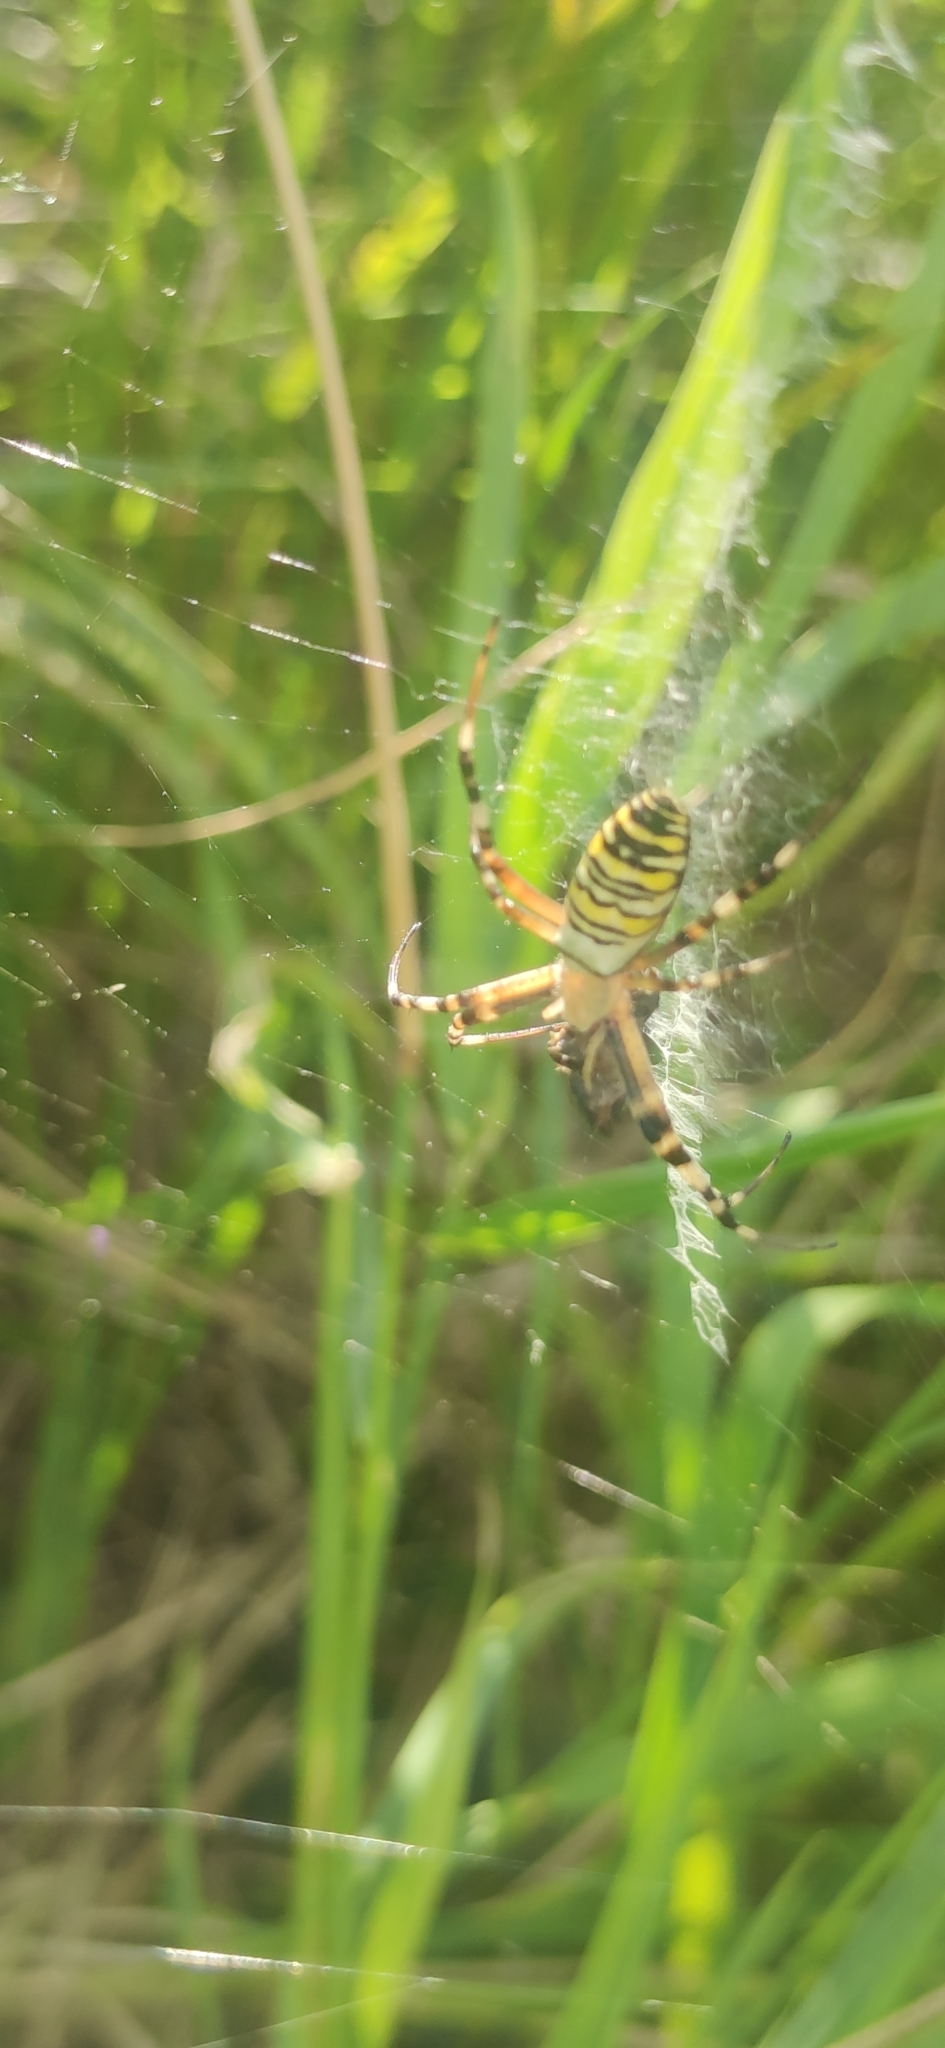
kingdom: Animalia
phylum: Arthropoda
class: Arachnida
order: Araneae
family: Araneidae
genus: Argiope
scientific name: Argiope bruennichi
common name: Wasp spider
